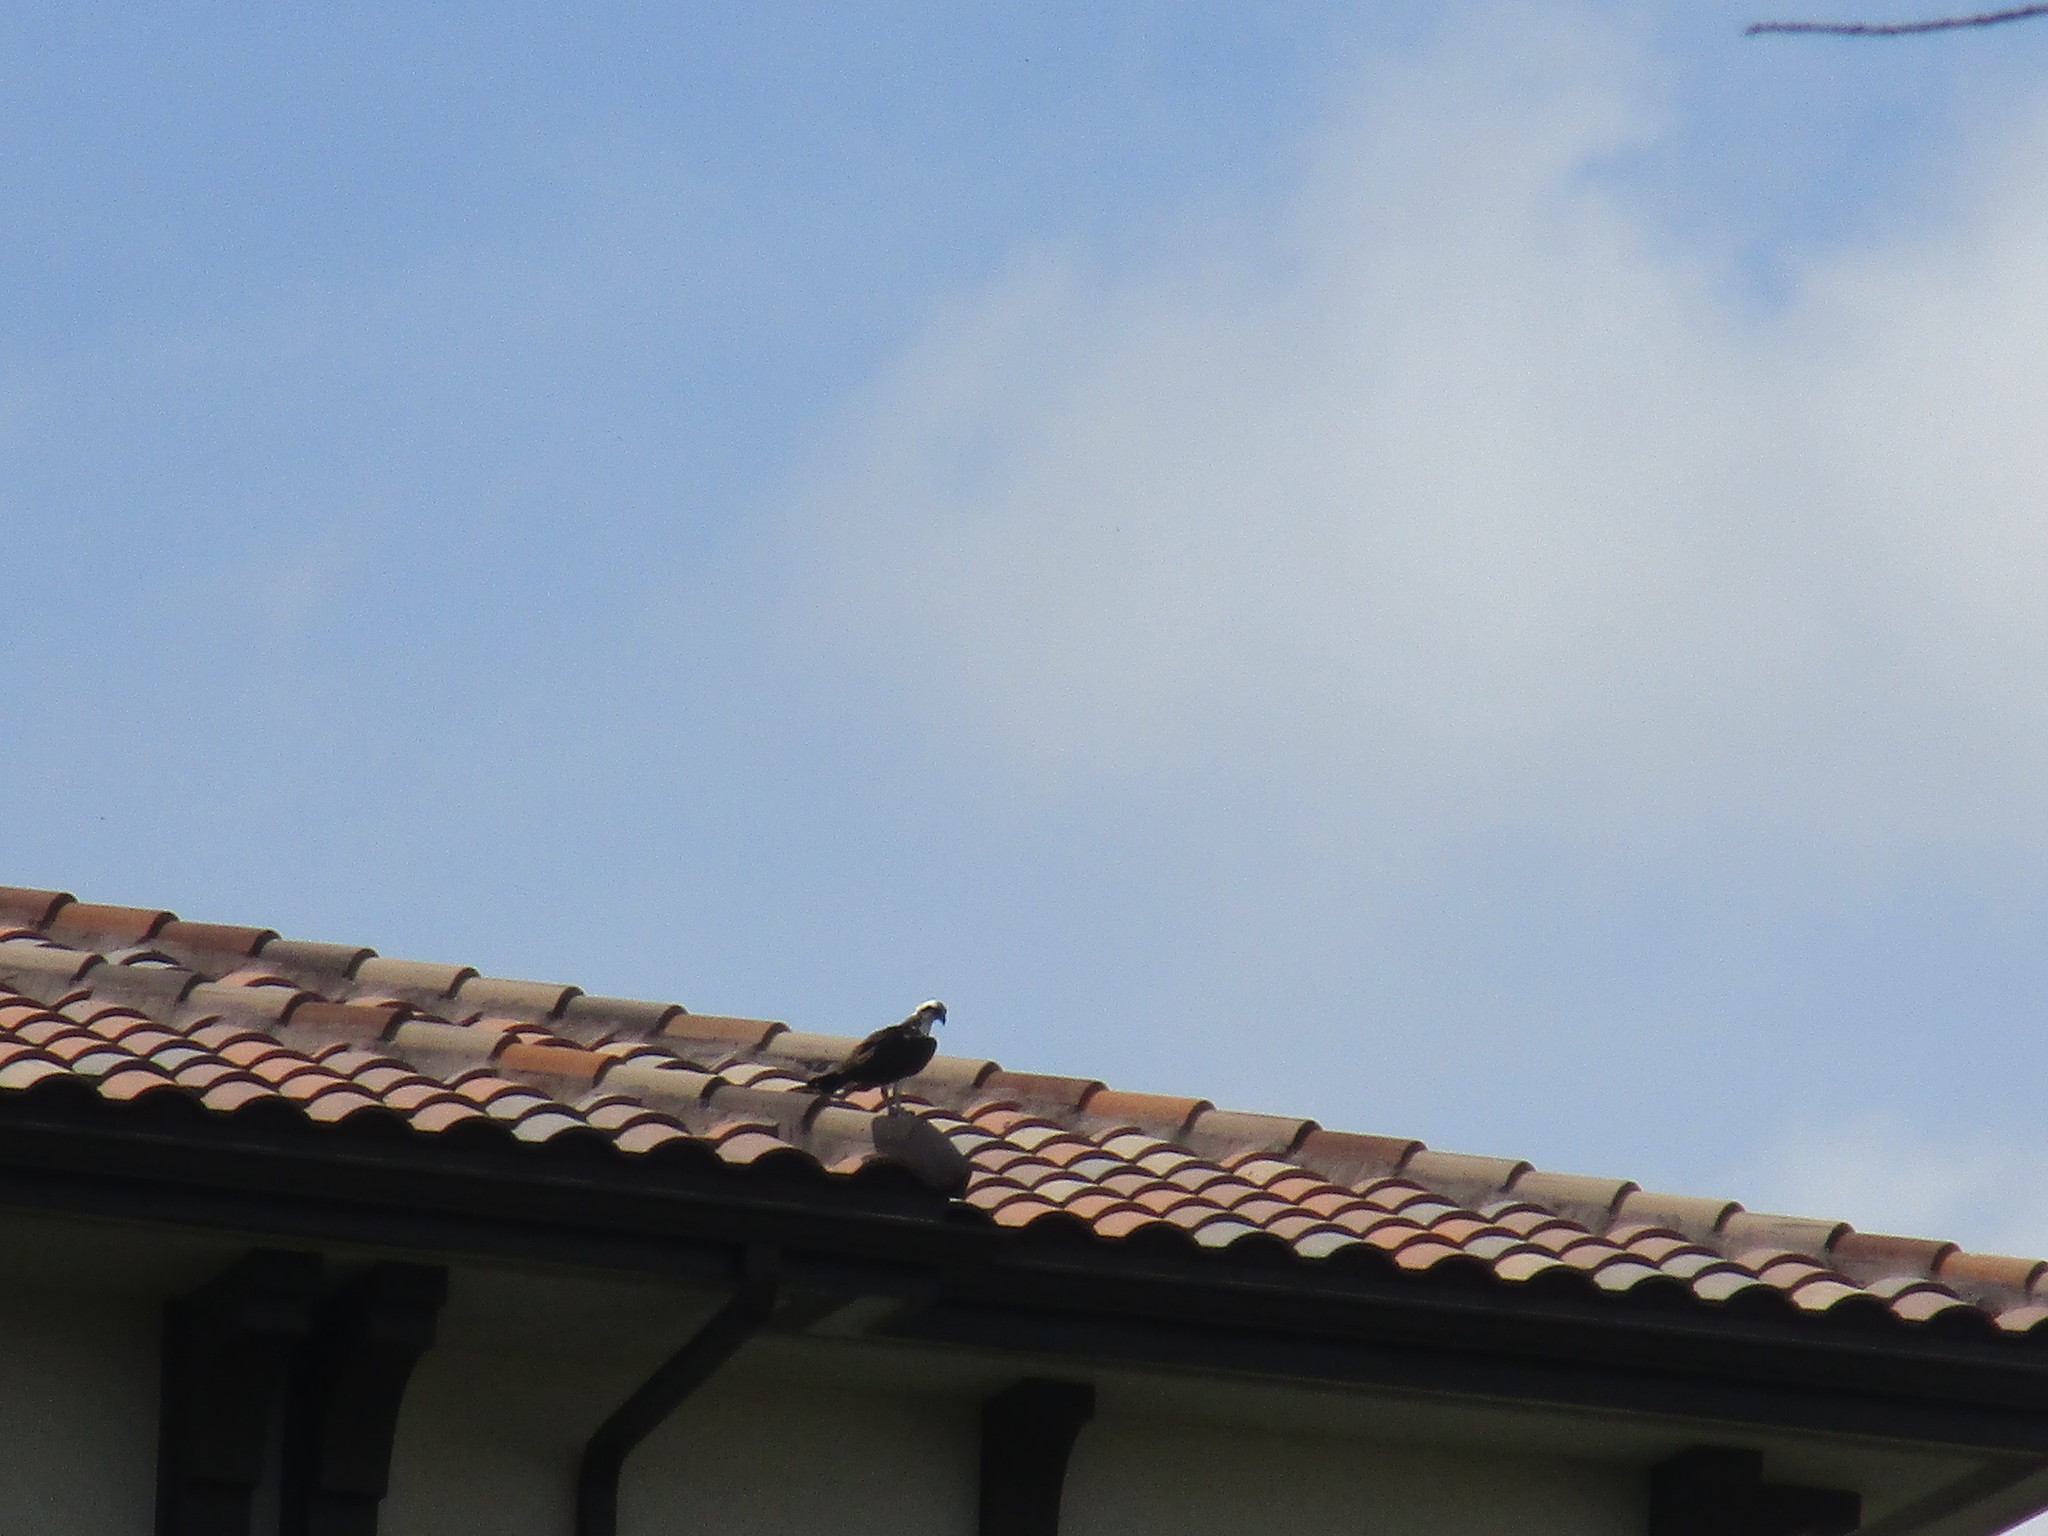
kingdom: Animalia
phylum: Chordata
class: Aves
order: Accipitriformes
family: Pandionidae
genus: Pandion
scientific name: Pandion haliaetus
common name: Osprey
